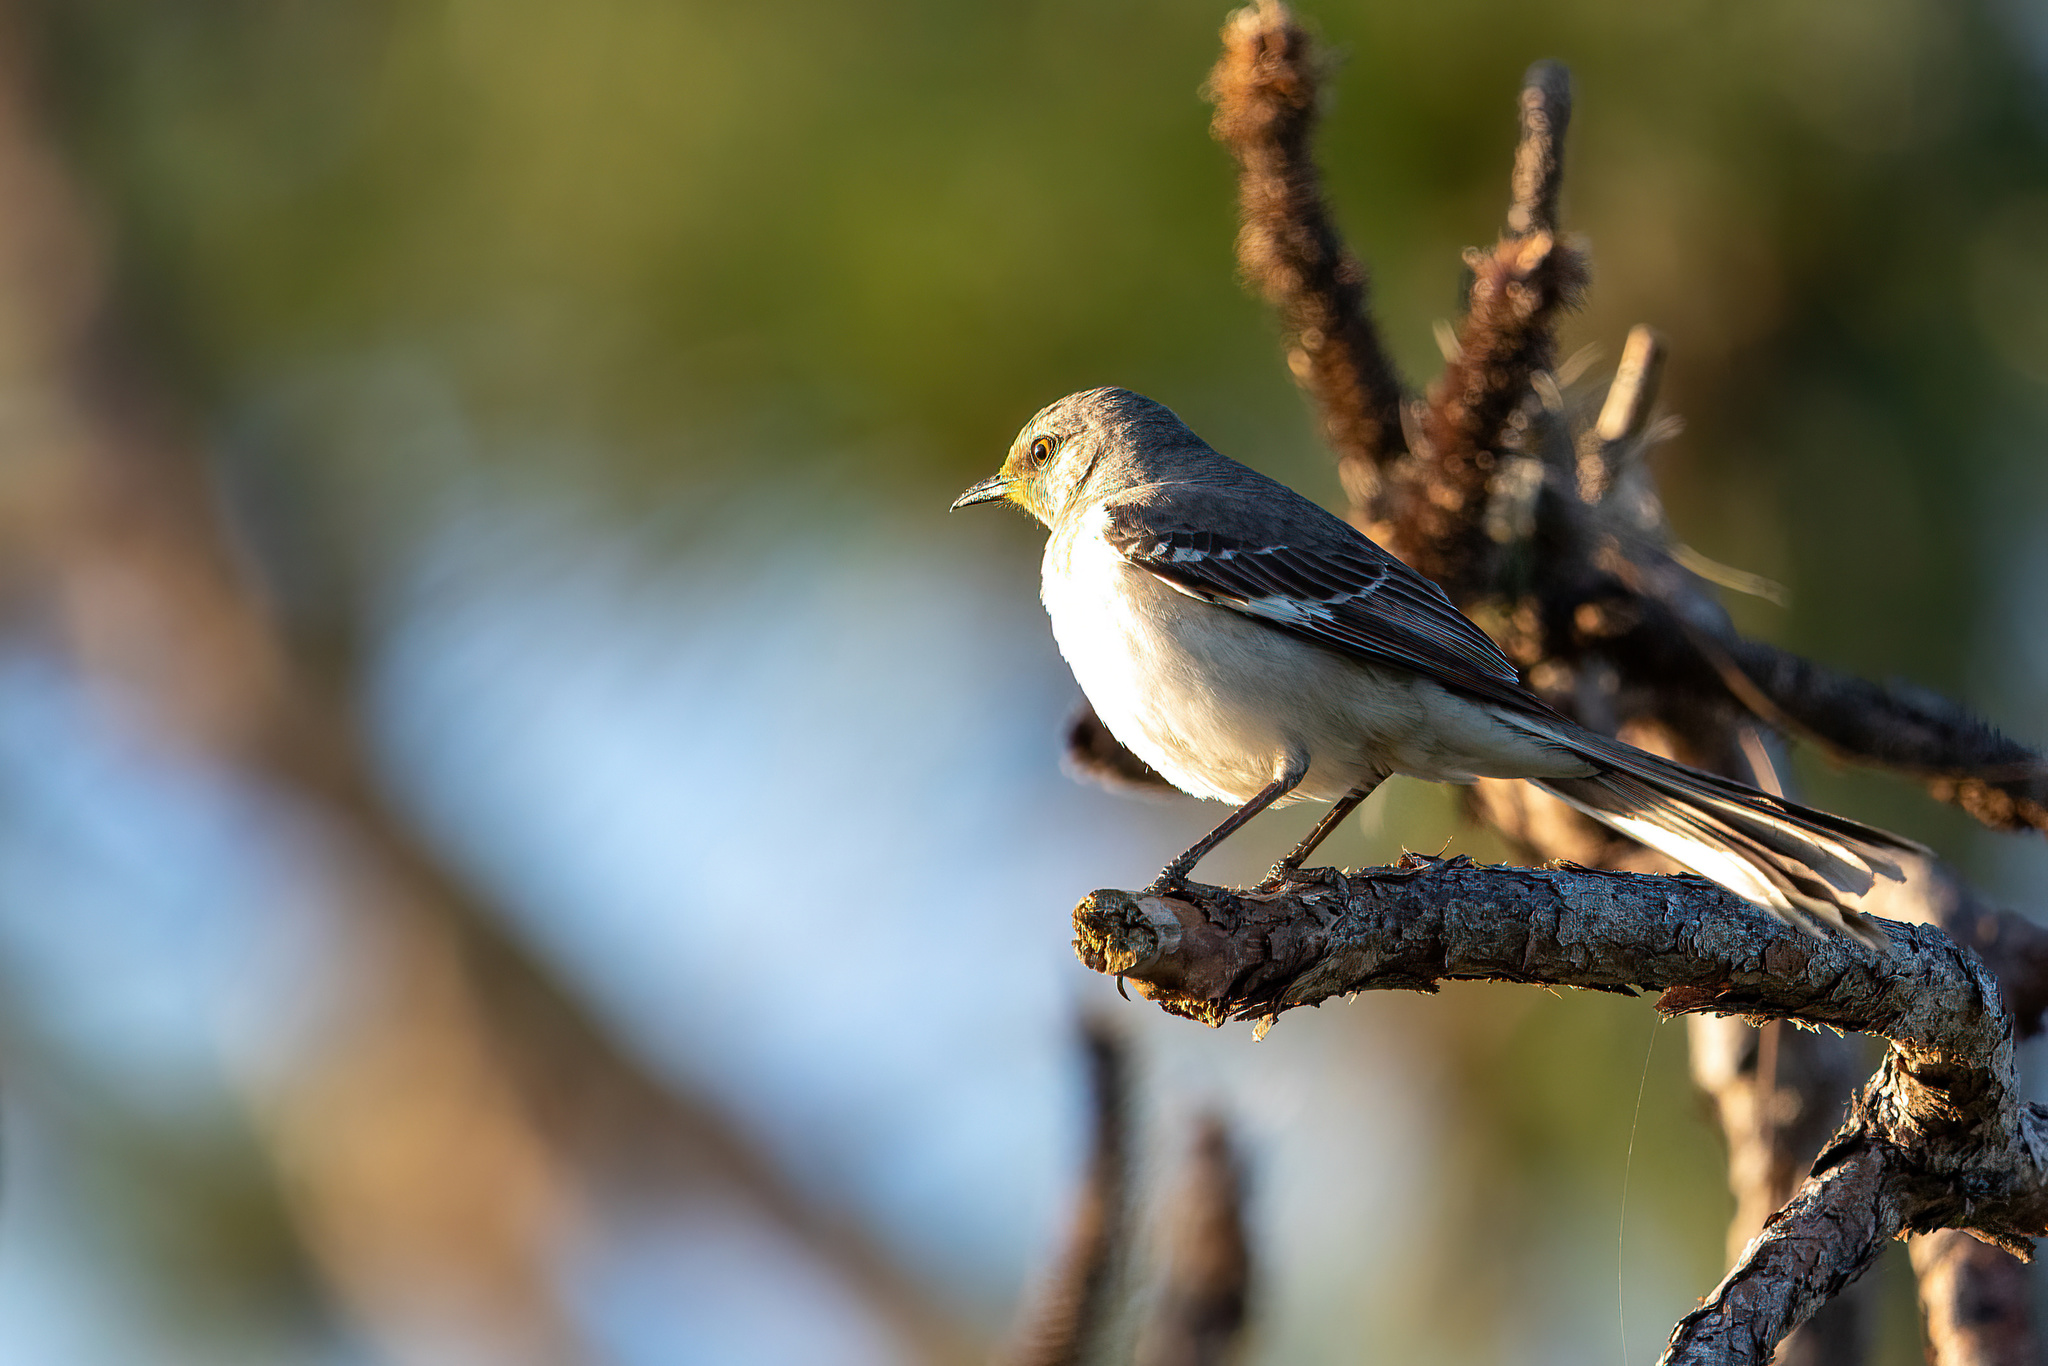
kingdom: Animalia
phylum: Chordata
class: Aves
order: Passeriformes
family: Mimidae
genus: Mimus
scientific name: Mimus polyglottos
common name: Northern mockingbird
